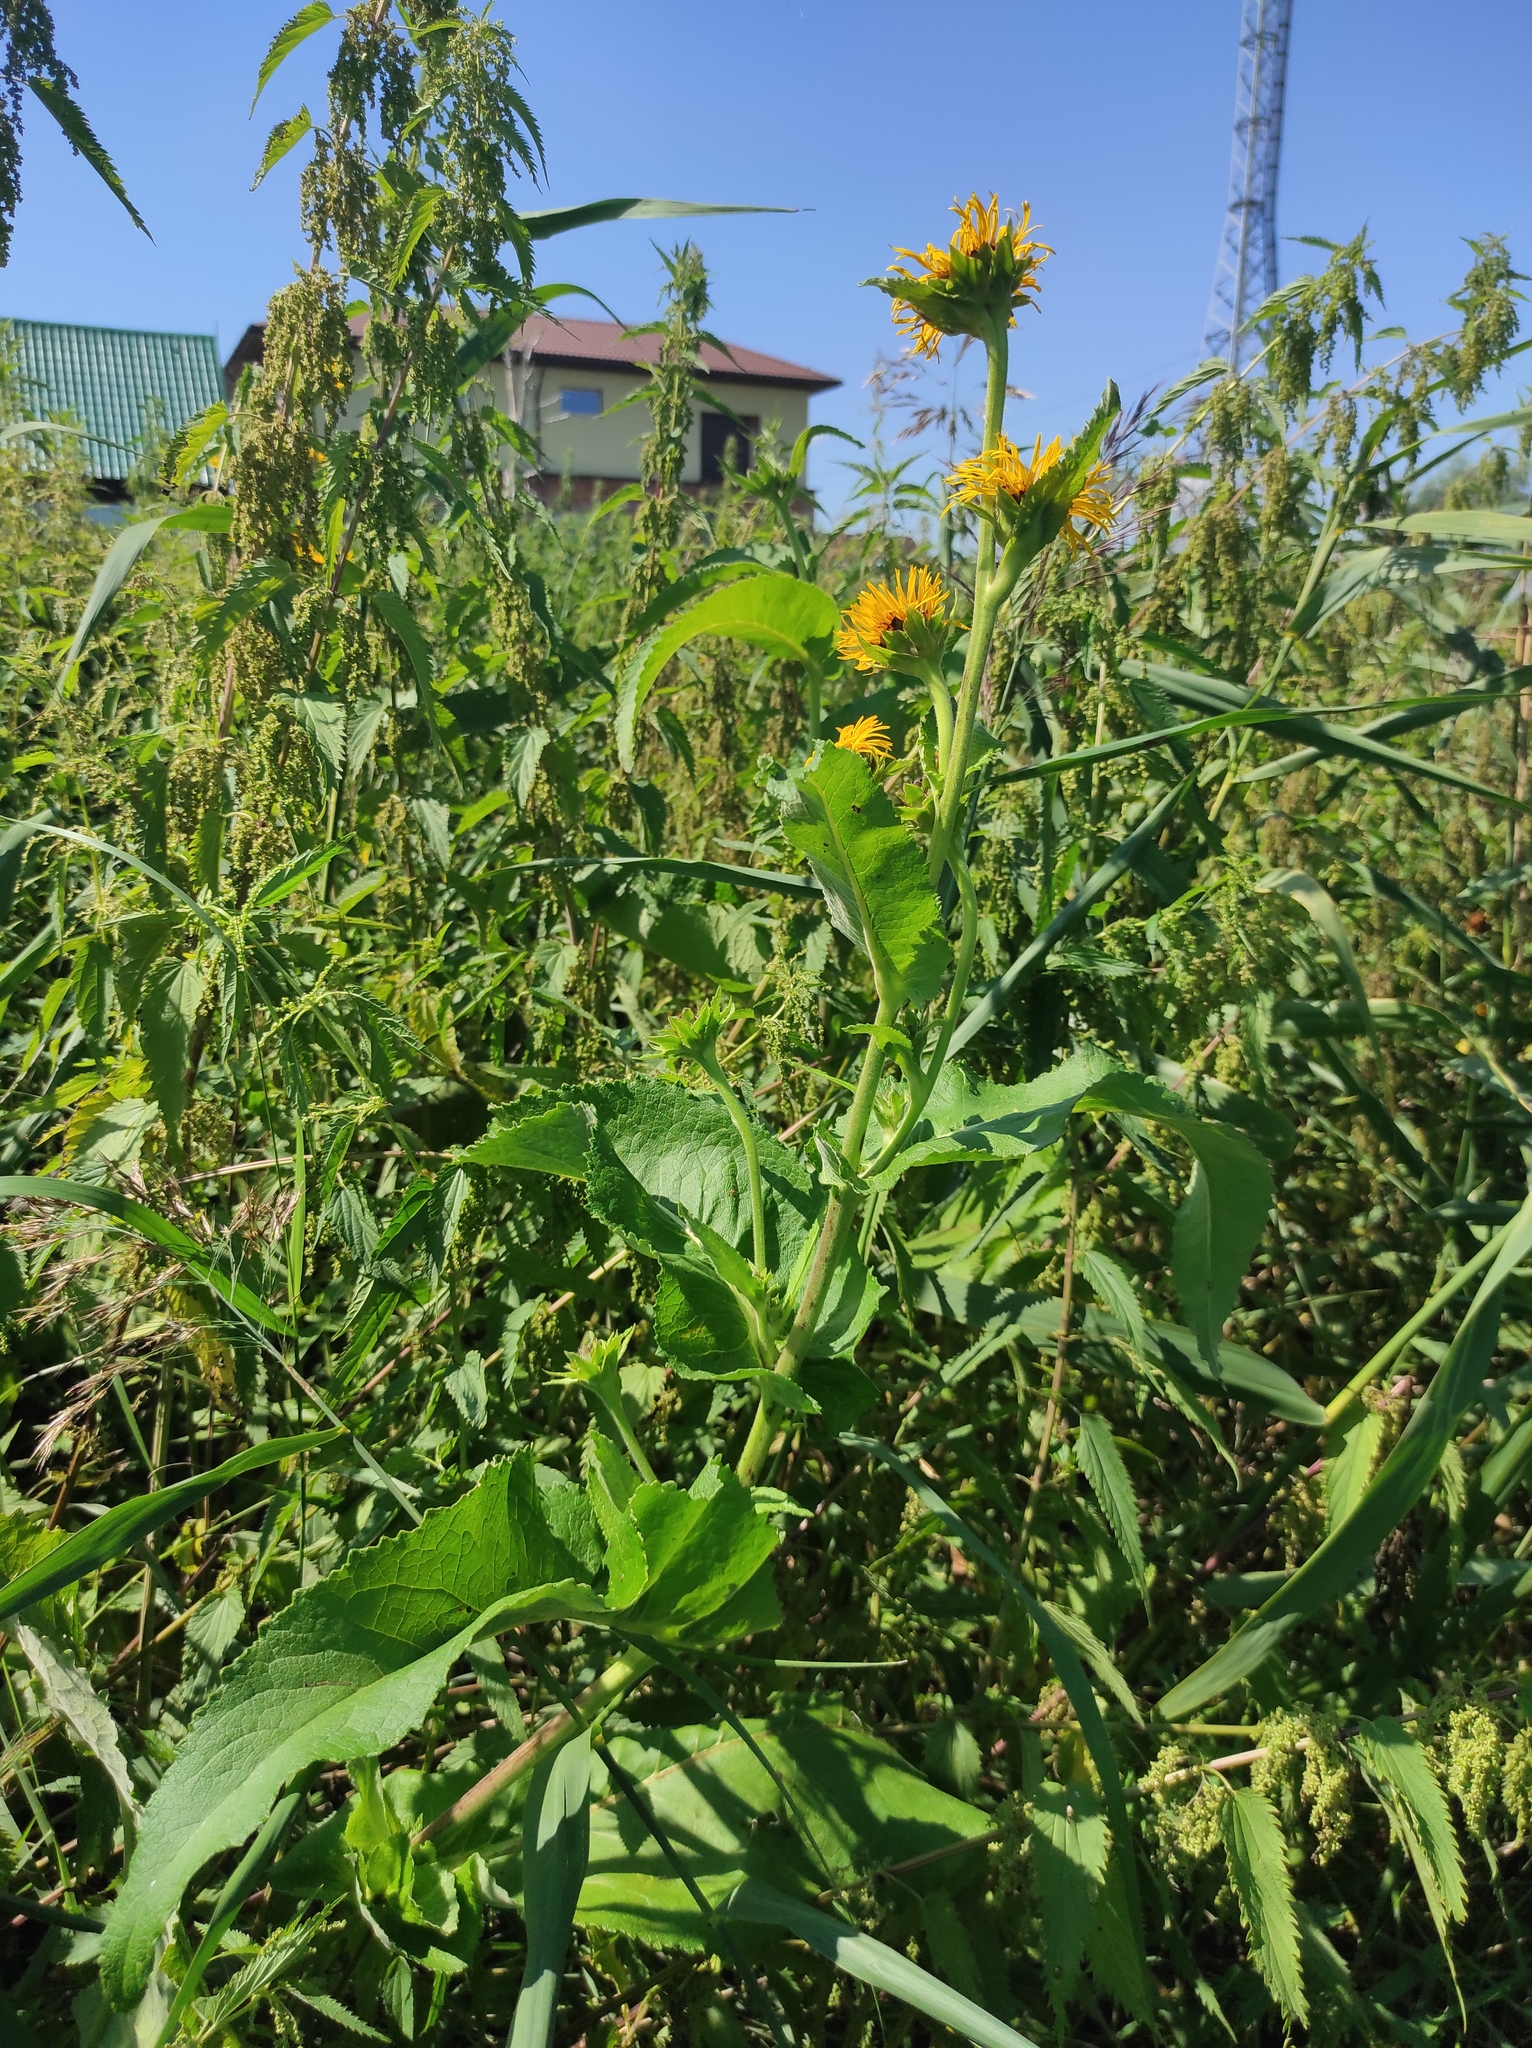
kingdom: Plantae
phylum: Tracheophyta
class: Magnoliopsida
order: Asterales
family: Asteraceae
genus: Inula
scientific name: Inula helenium
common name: Elecampane
